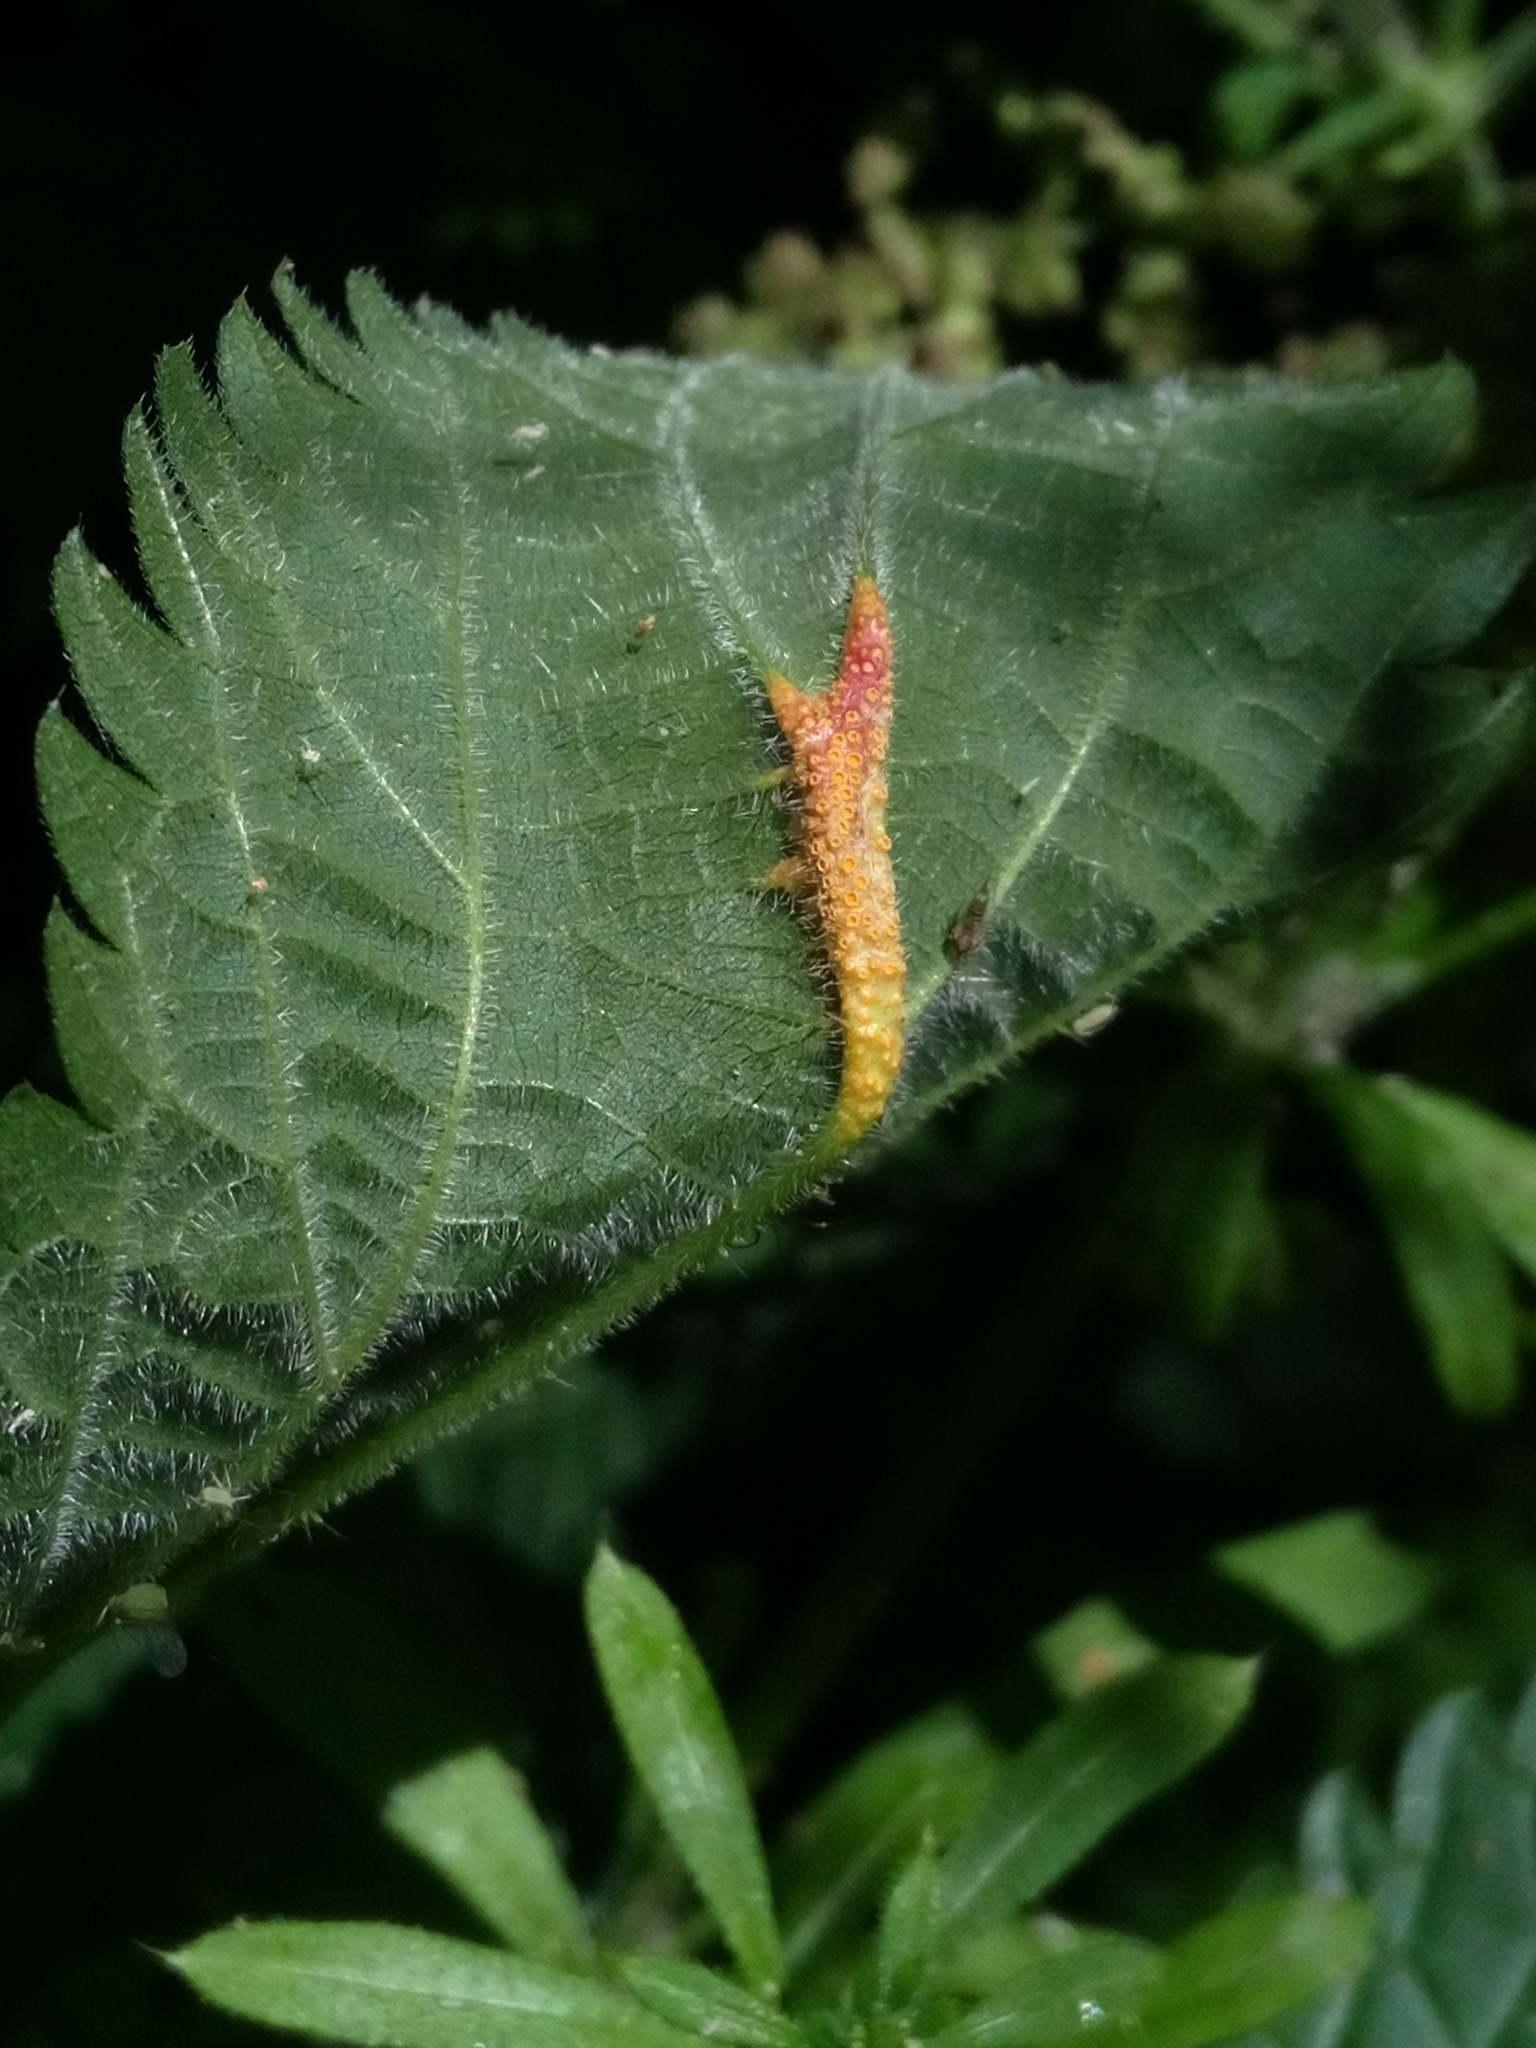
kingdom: Fungi
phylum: Basidiomycota
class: Pucciniomycetes
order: Pucciniales
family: Pucciniaceae
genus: Puccinia
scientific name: Puccinia urticata
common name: Nettle clustercup rust fungus
